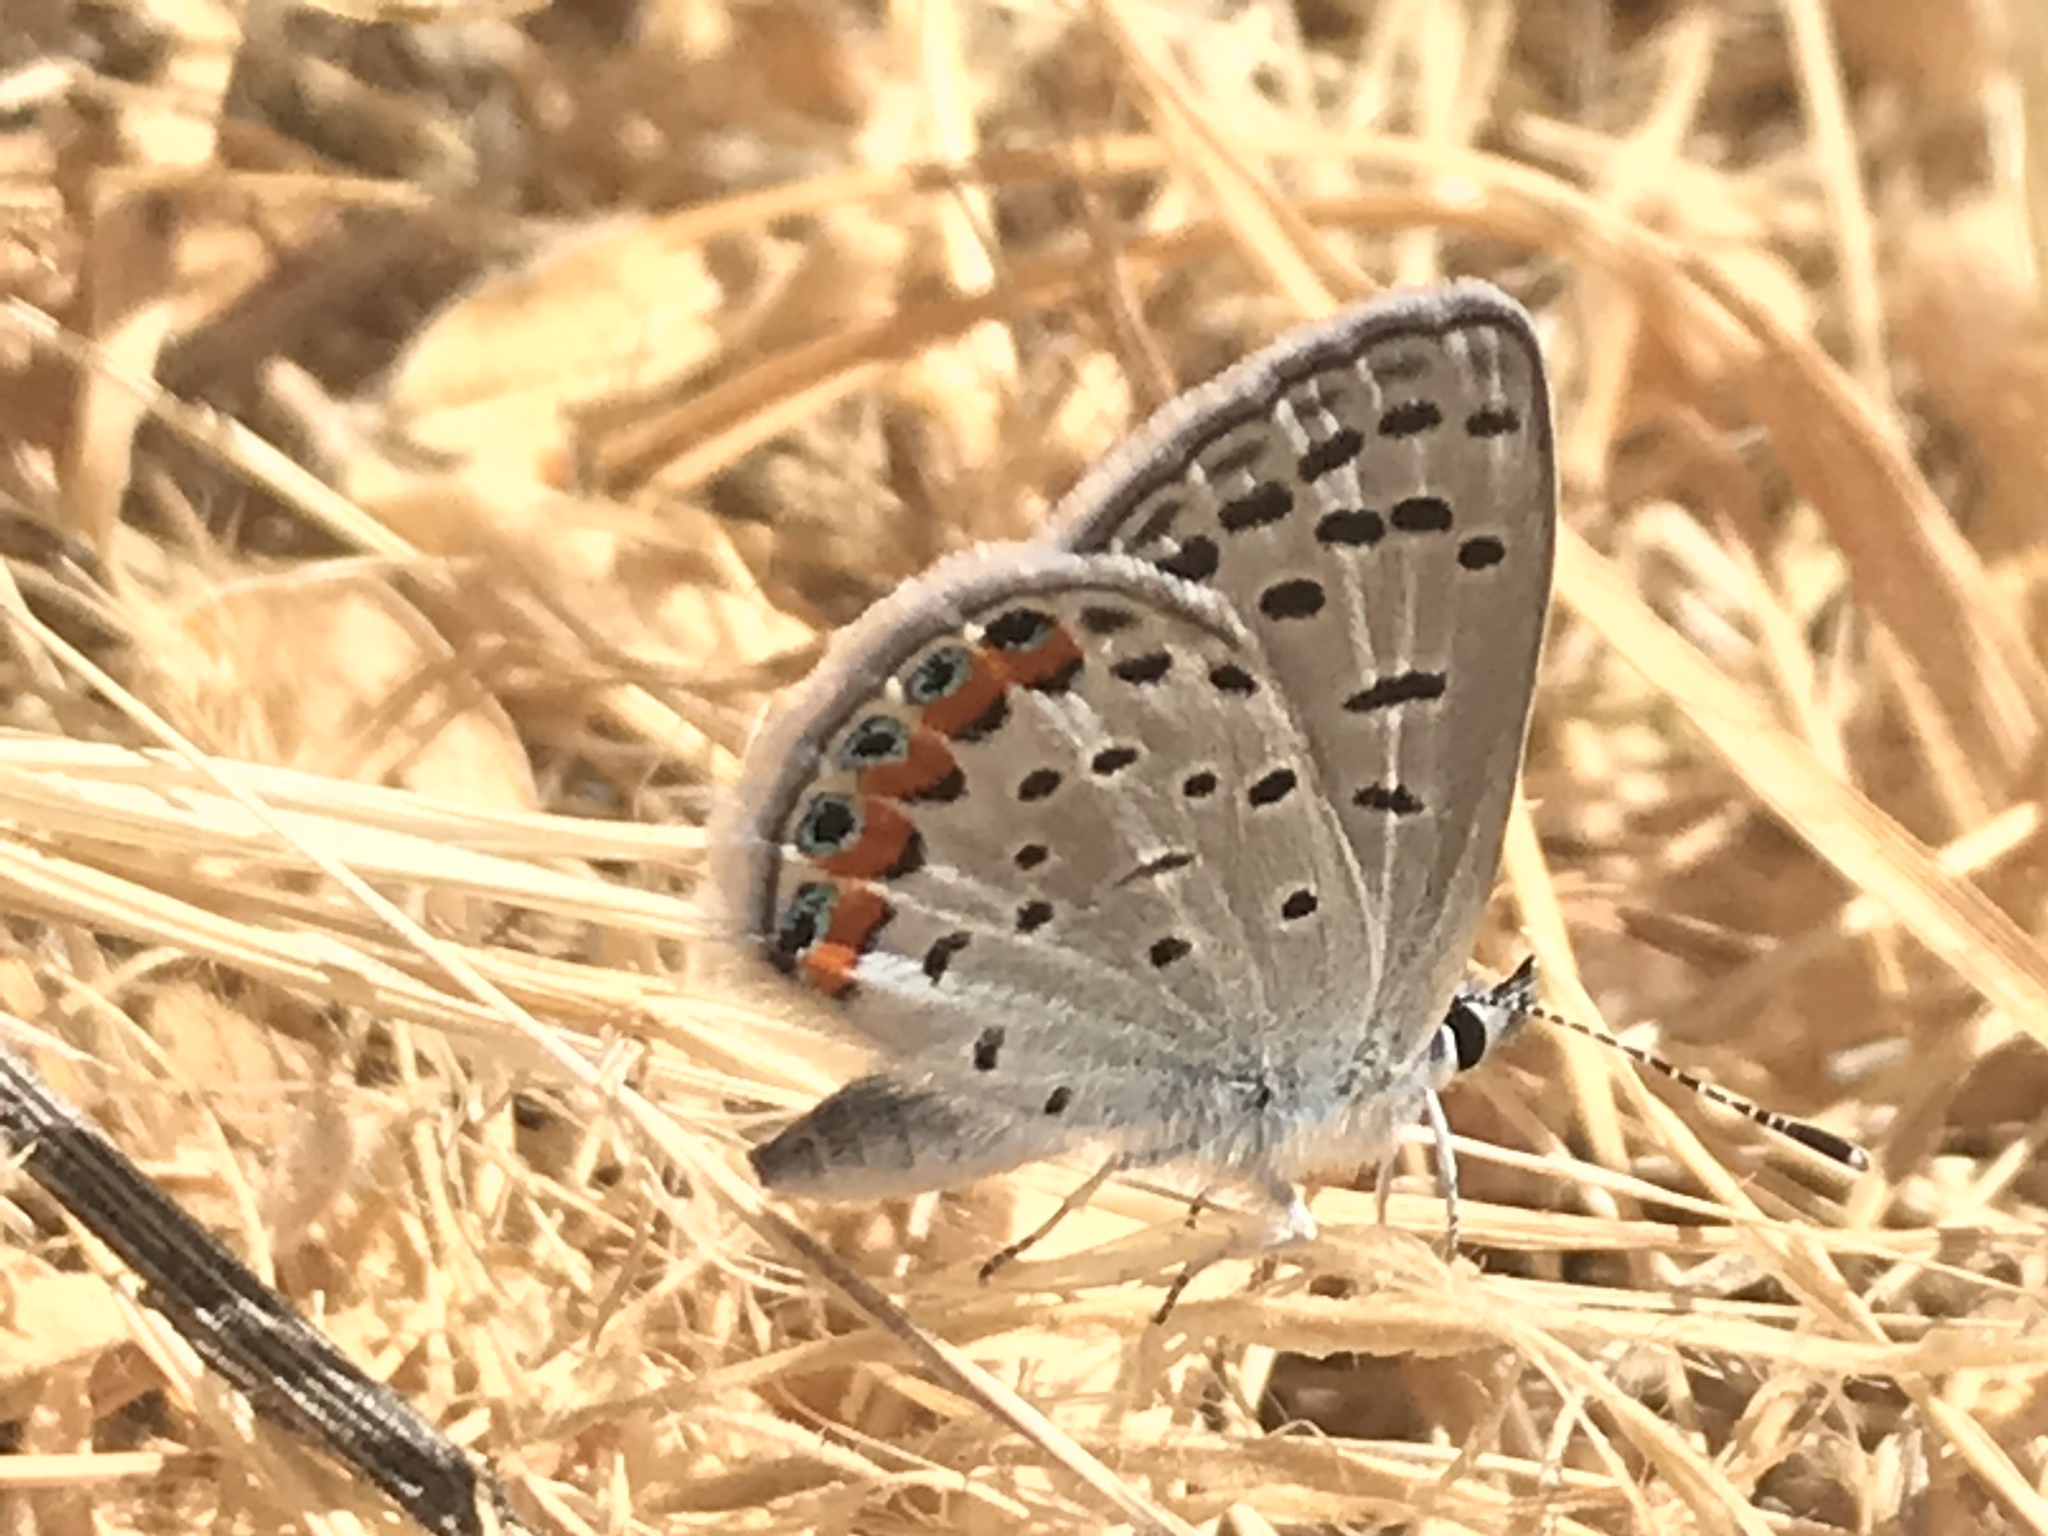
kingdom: Animalia
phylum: Arthropoda
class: Insecta
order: Lepidoptera
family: Lycaenidae
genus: Icaricia
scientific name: Icaricia acmon
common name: Acmon blue
